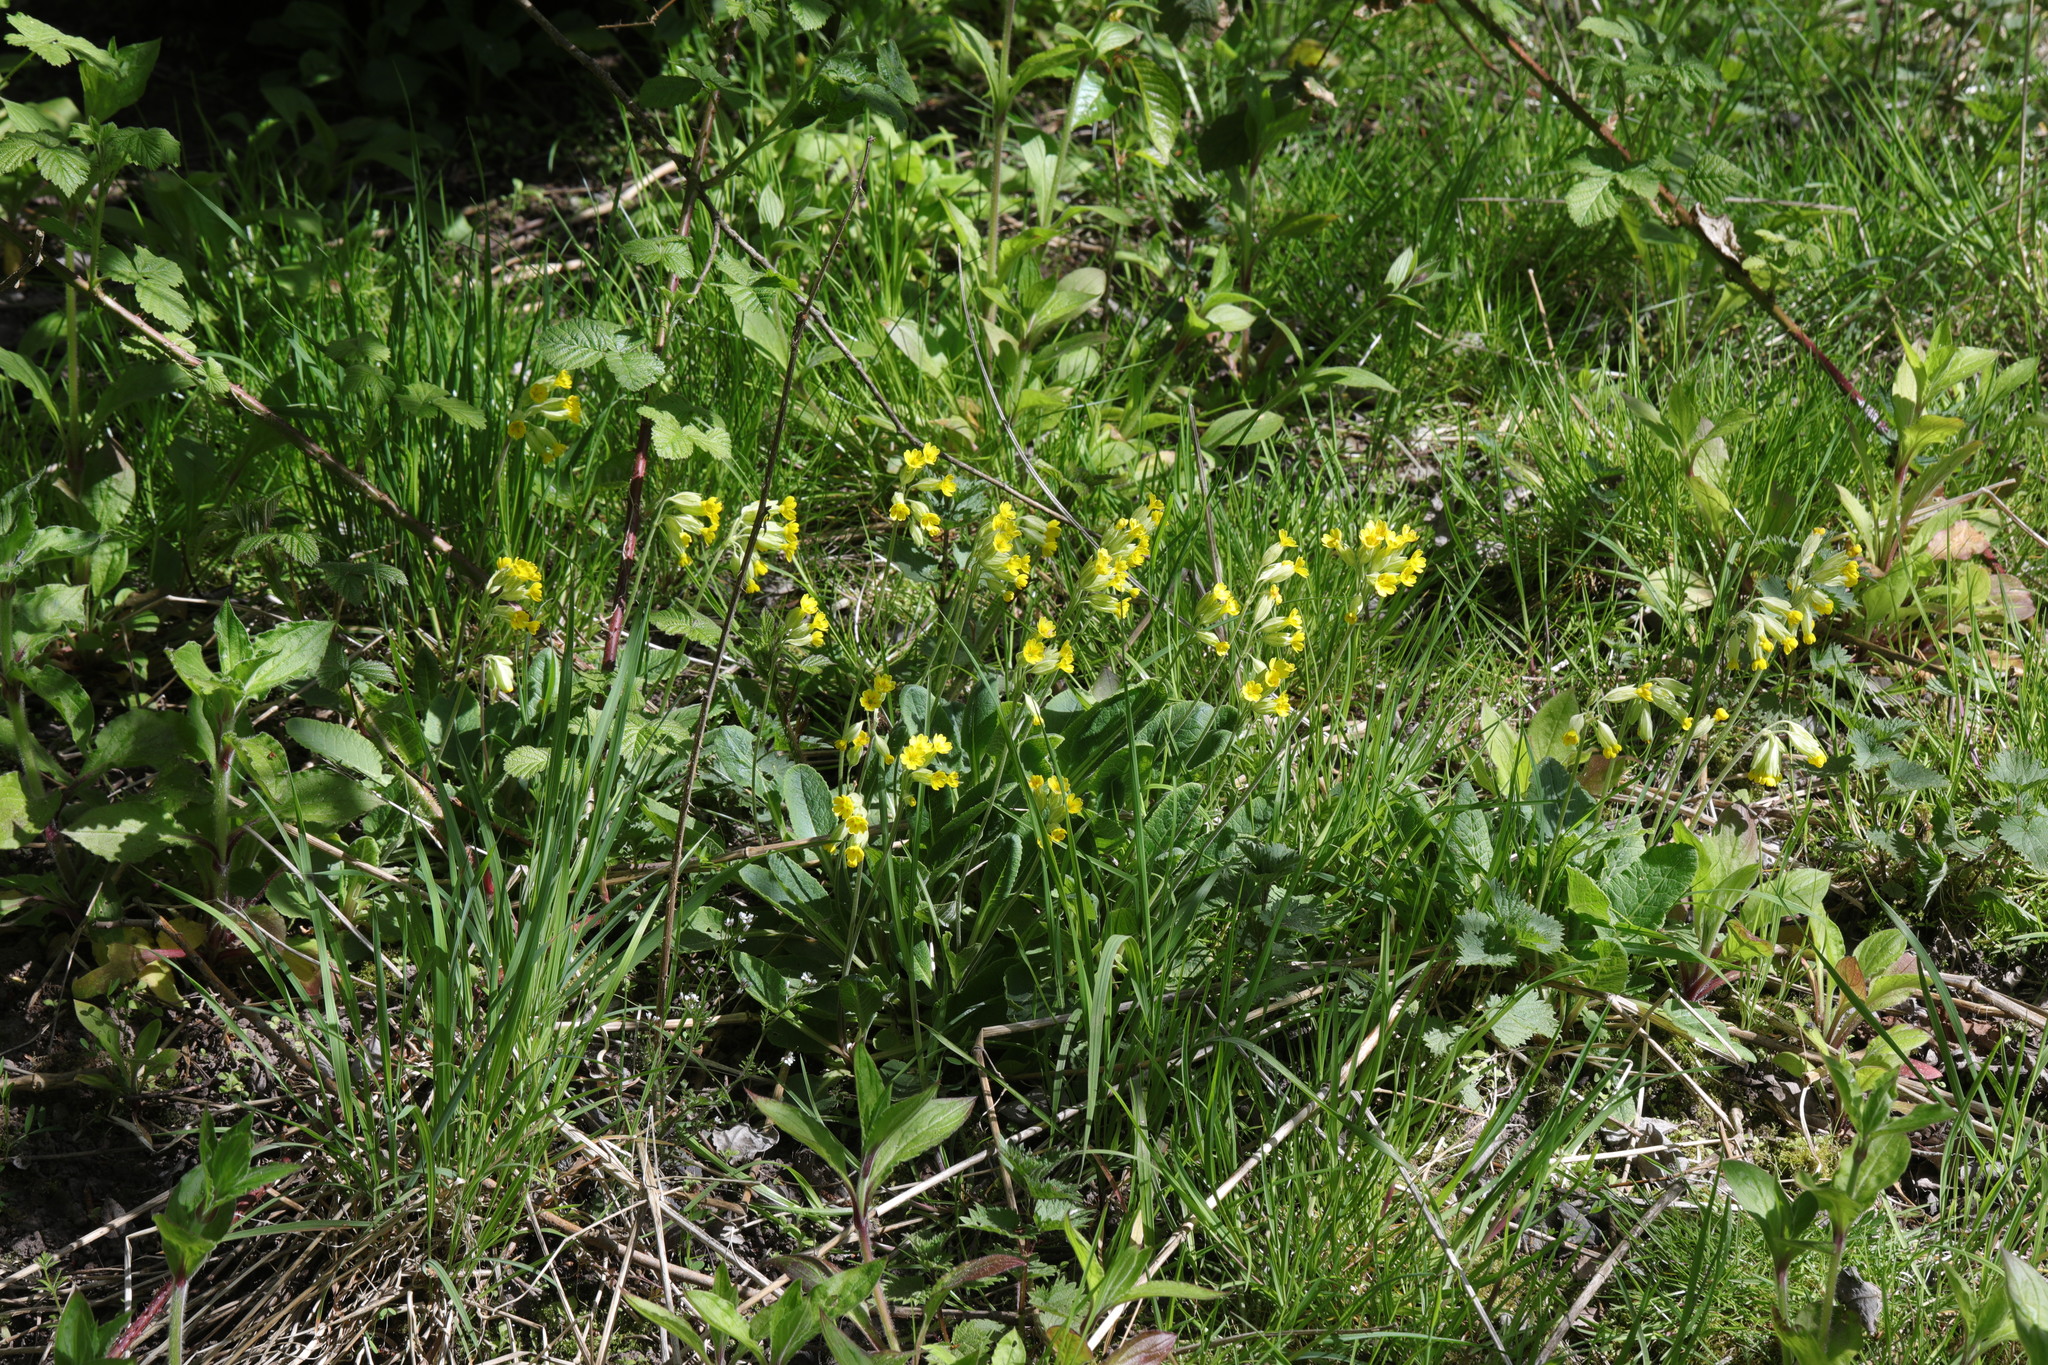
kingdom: Plantae
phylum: Tracheophyta
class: Magnoliopsida
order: Ericales
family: Primulaceae
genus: Primula
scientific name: Primula veris
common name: Cowslip
